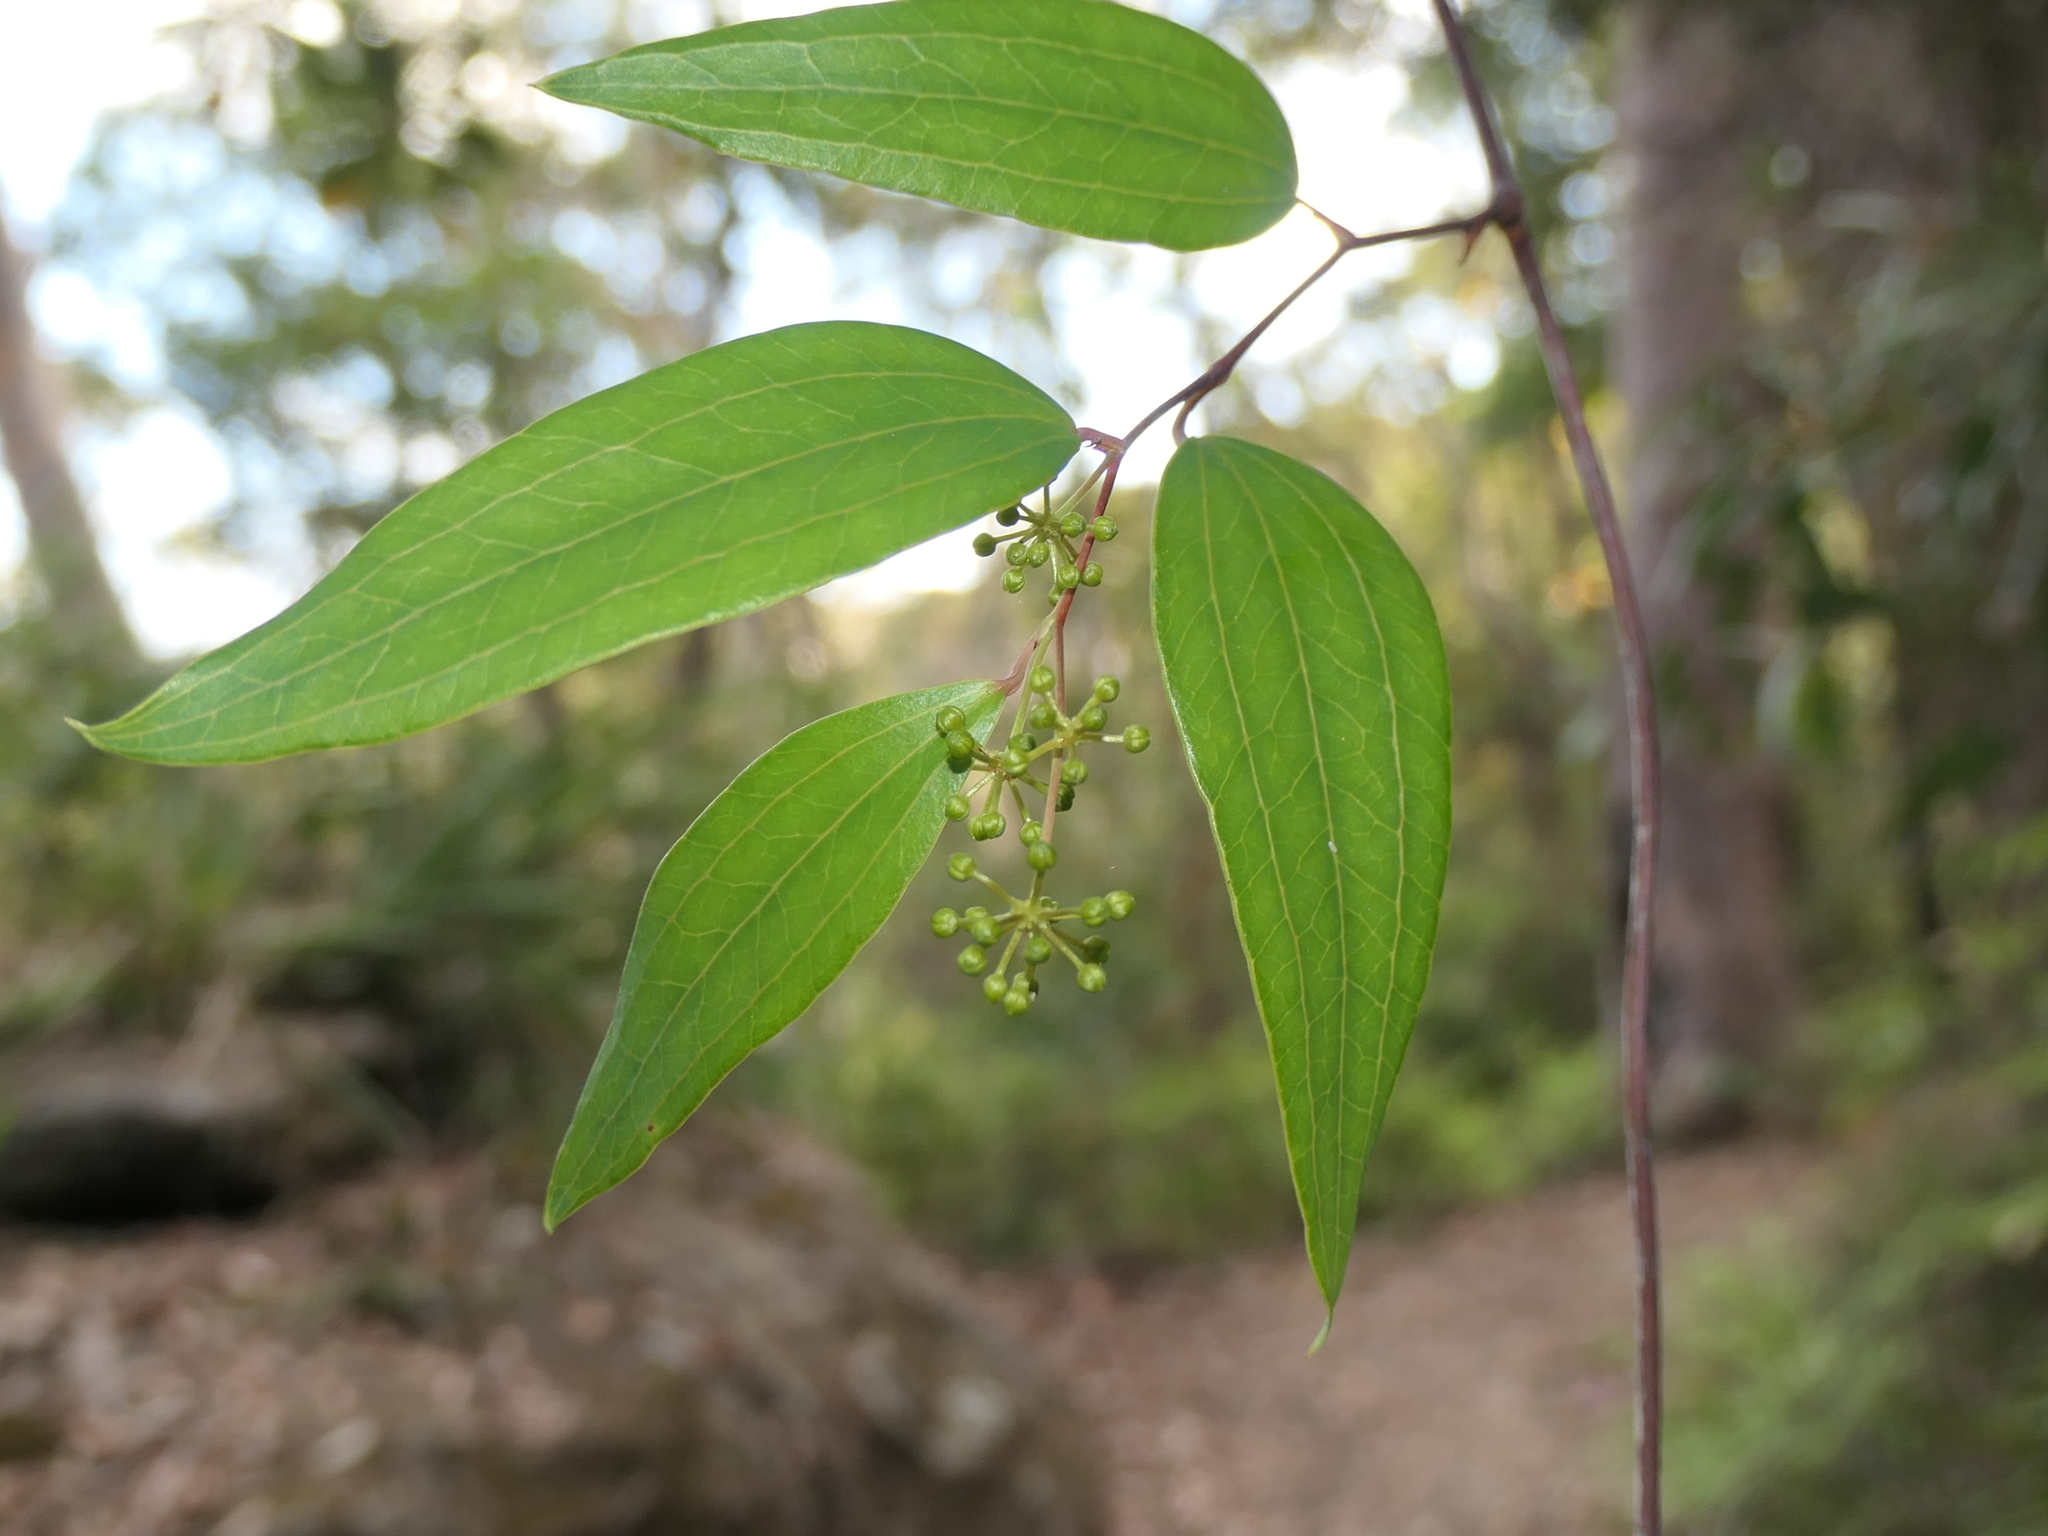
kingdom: Plantae
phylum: Tracheophyta
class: Liliopsida
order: Liliales
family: Smilacaceae
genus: Smilax
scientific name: Smilax glyciphylla
